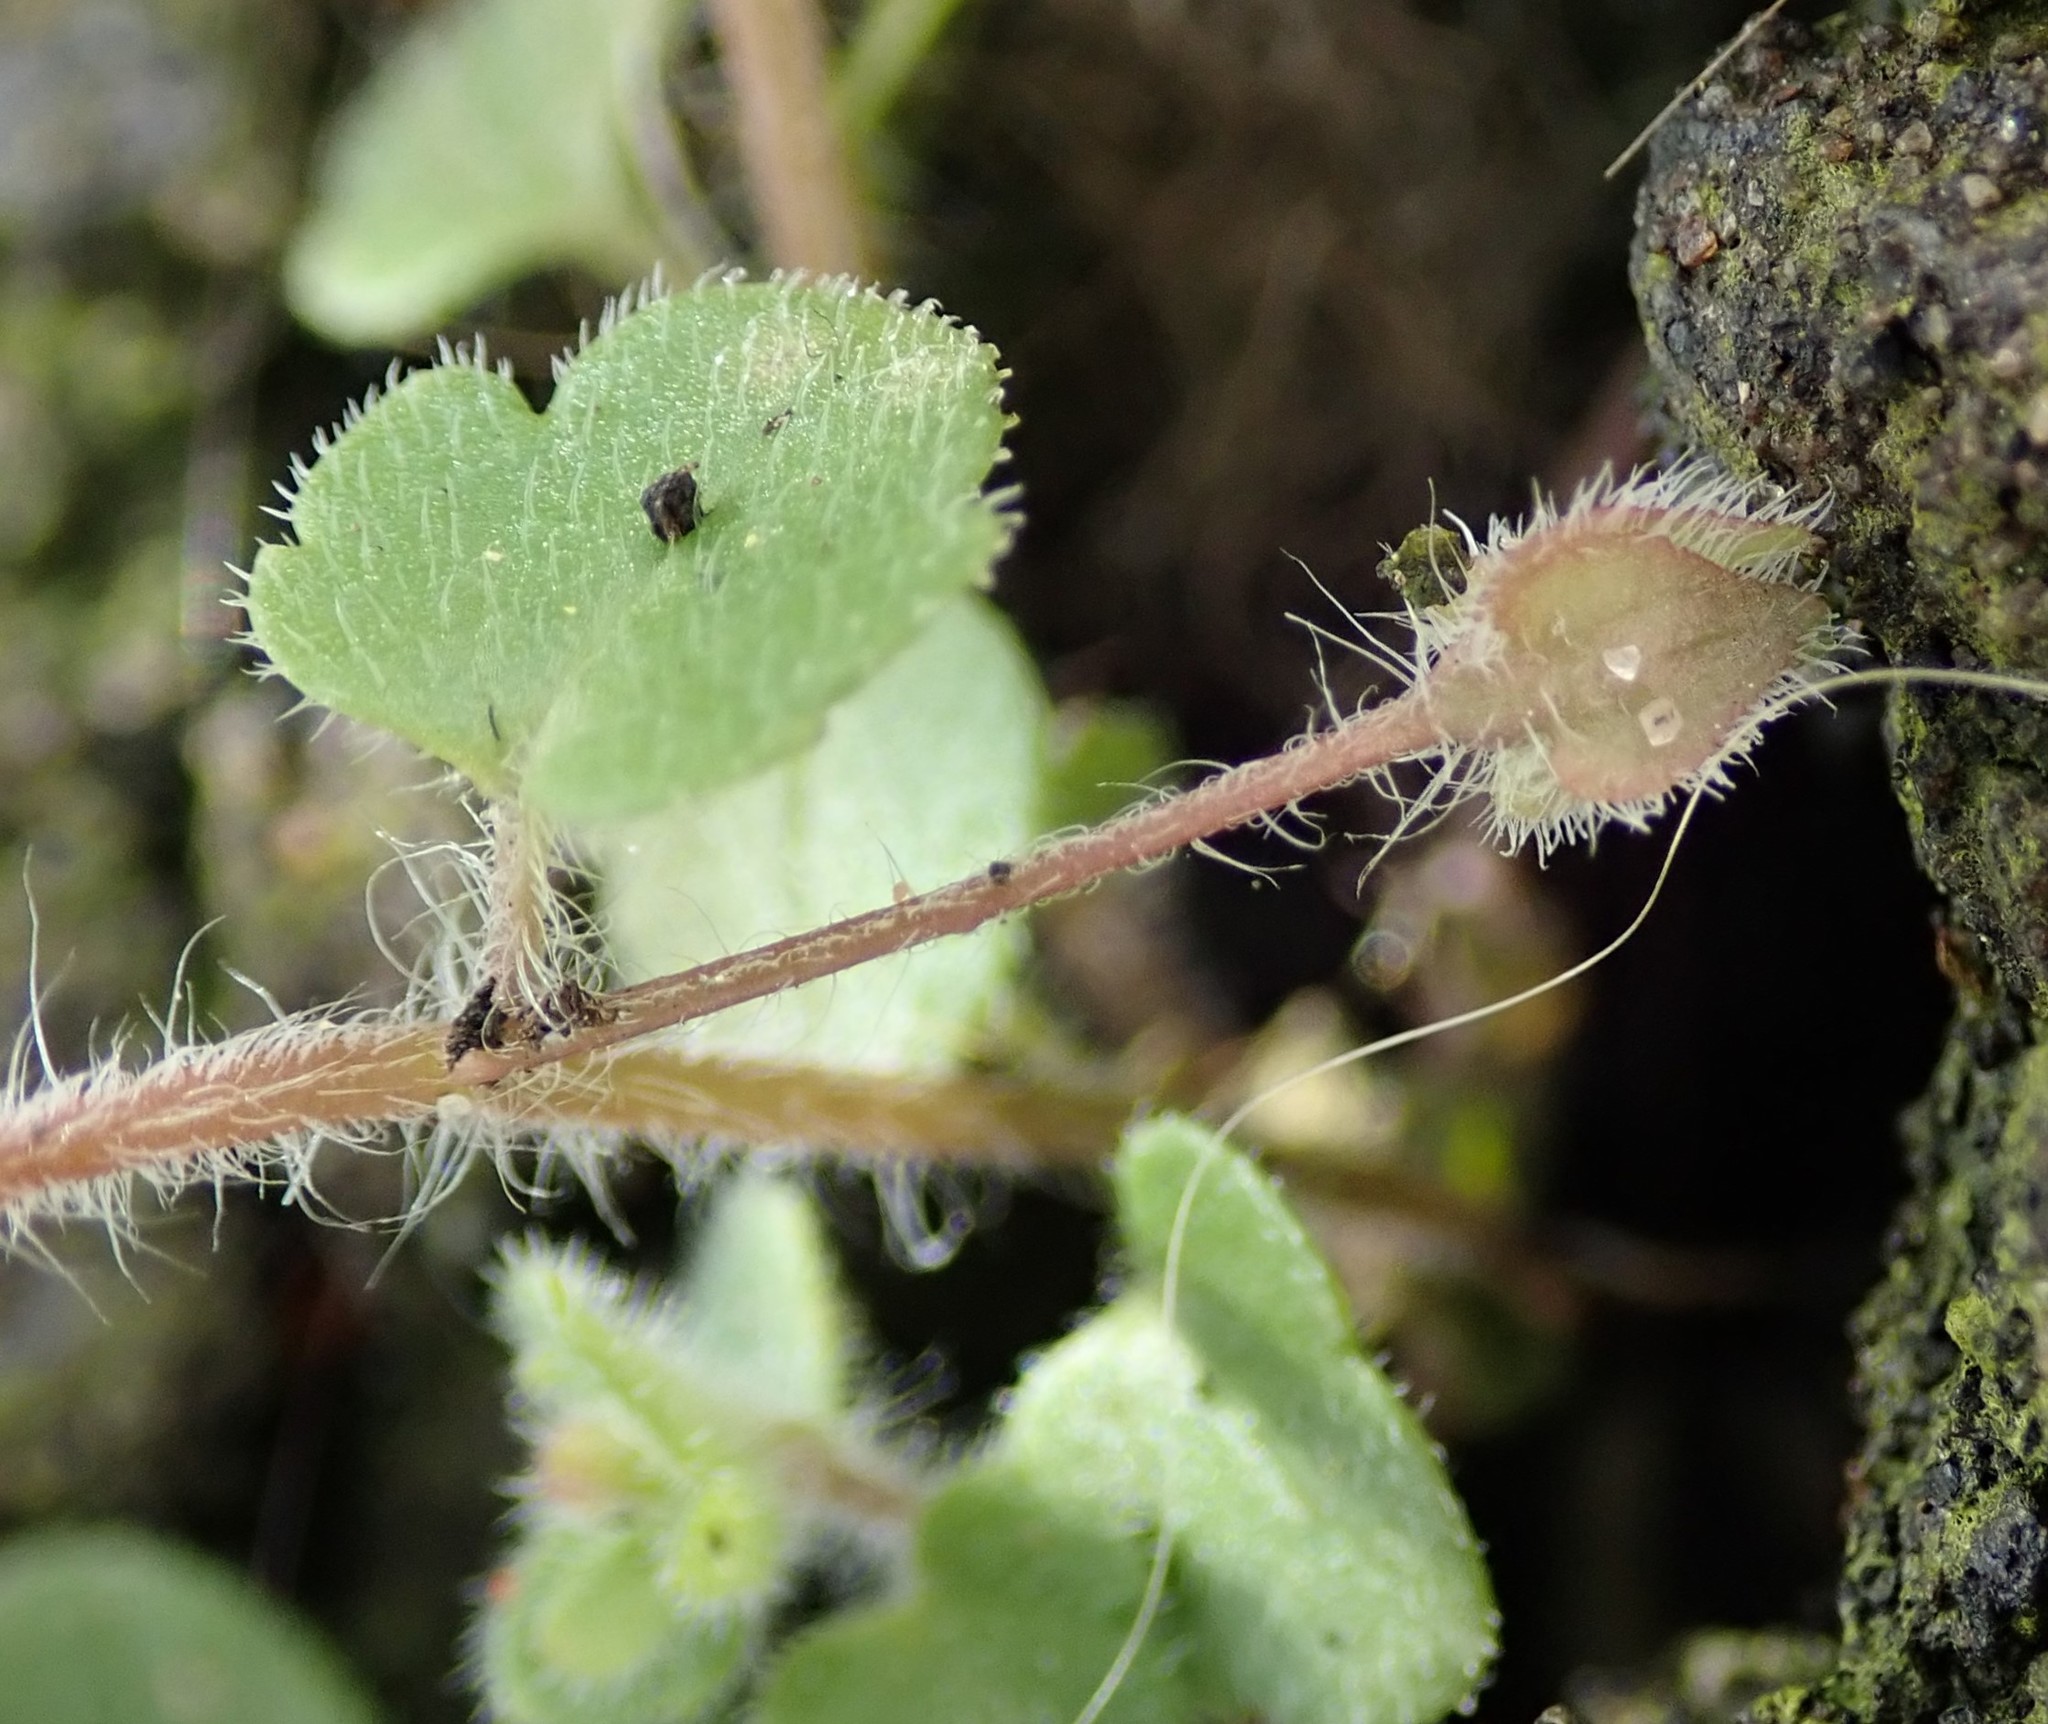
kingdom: Plantae
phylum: Tracheophyta
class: Magnoliopsida
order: Lamiales
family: Plantaginaceae
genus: Veronica
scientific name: Veronica sublobata
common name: False ivy-leaved speedwell
